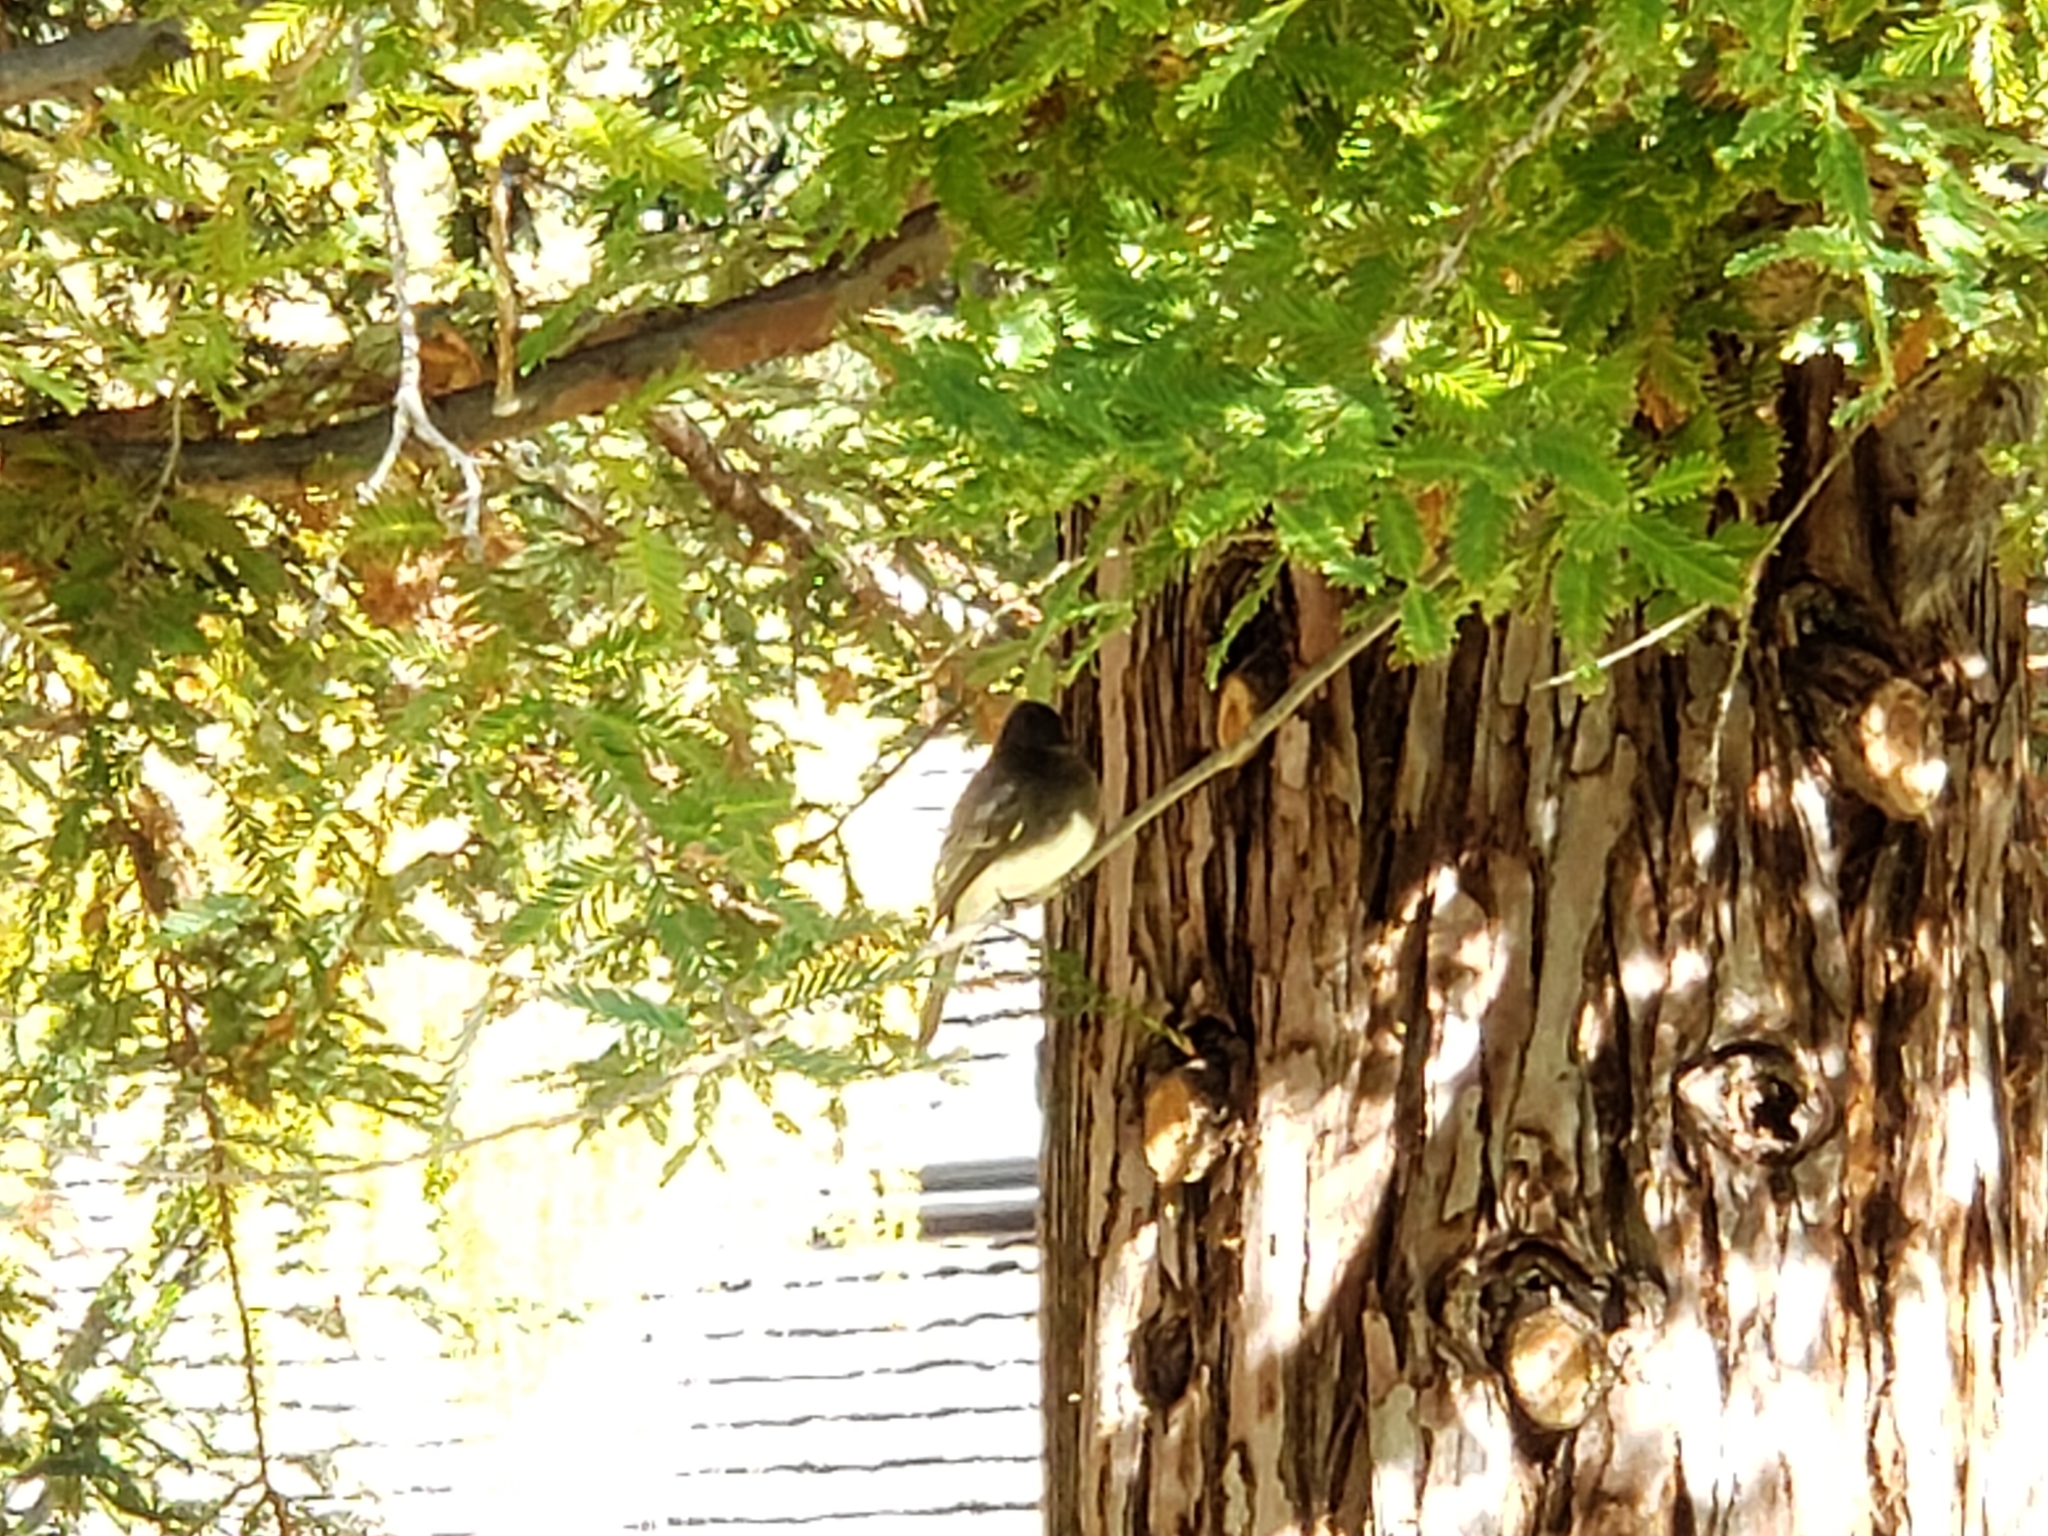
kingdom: Animalia
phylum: Chordata
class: Aves
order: Passeriformes
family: Tyrannidae
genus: Sayornis
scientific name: Sayornis nigricans
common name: Black phoebe
